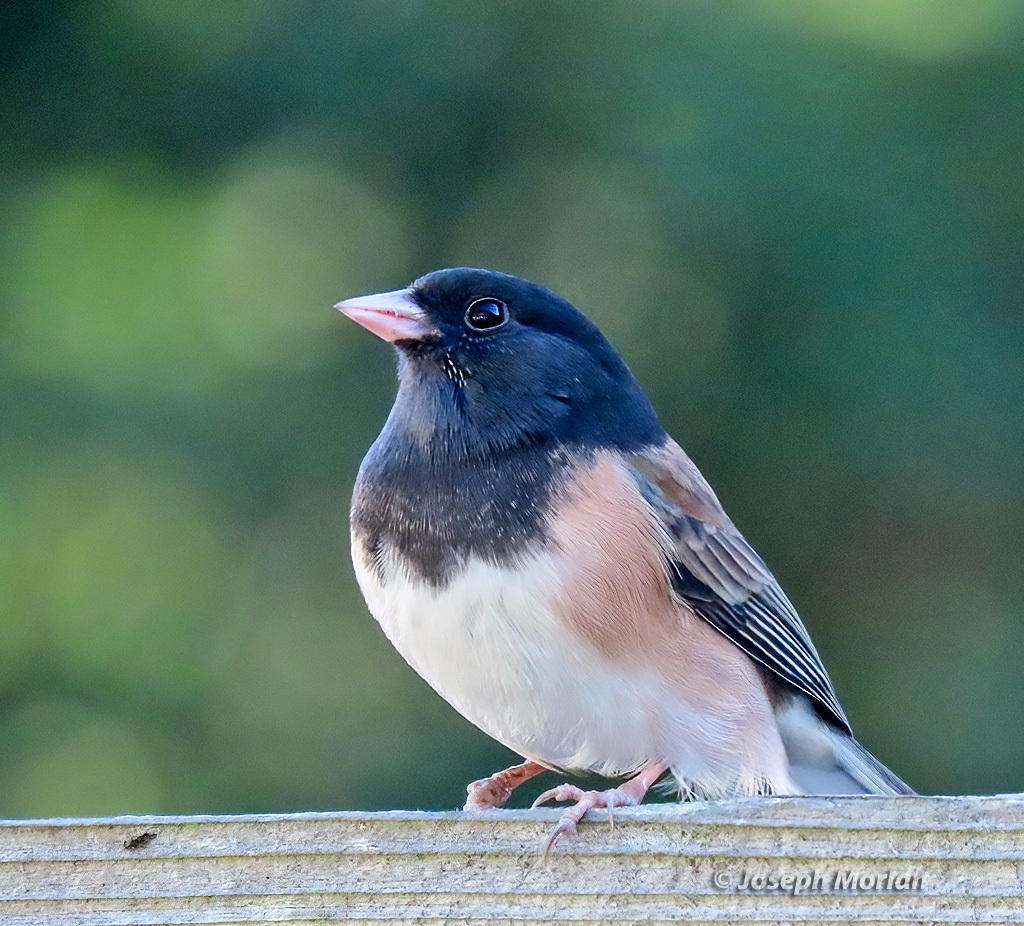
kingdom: Animalia
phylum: Chordata
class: Aves
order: Passeriformes
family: Passerellidae
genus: Junco
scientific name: Junco hyemalis
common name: Dark-eyed junco
